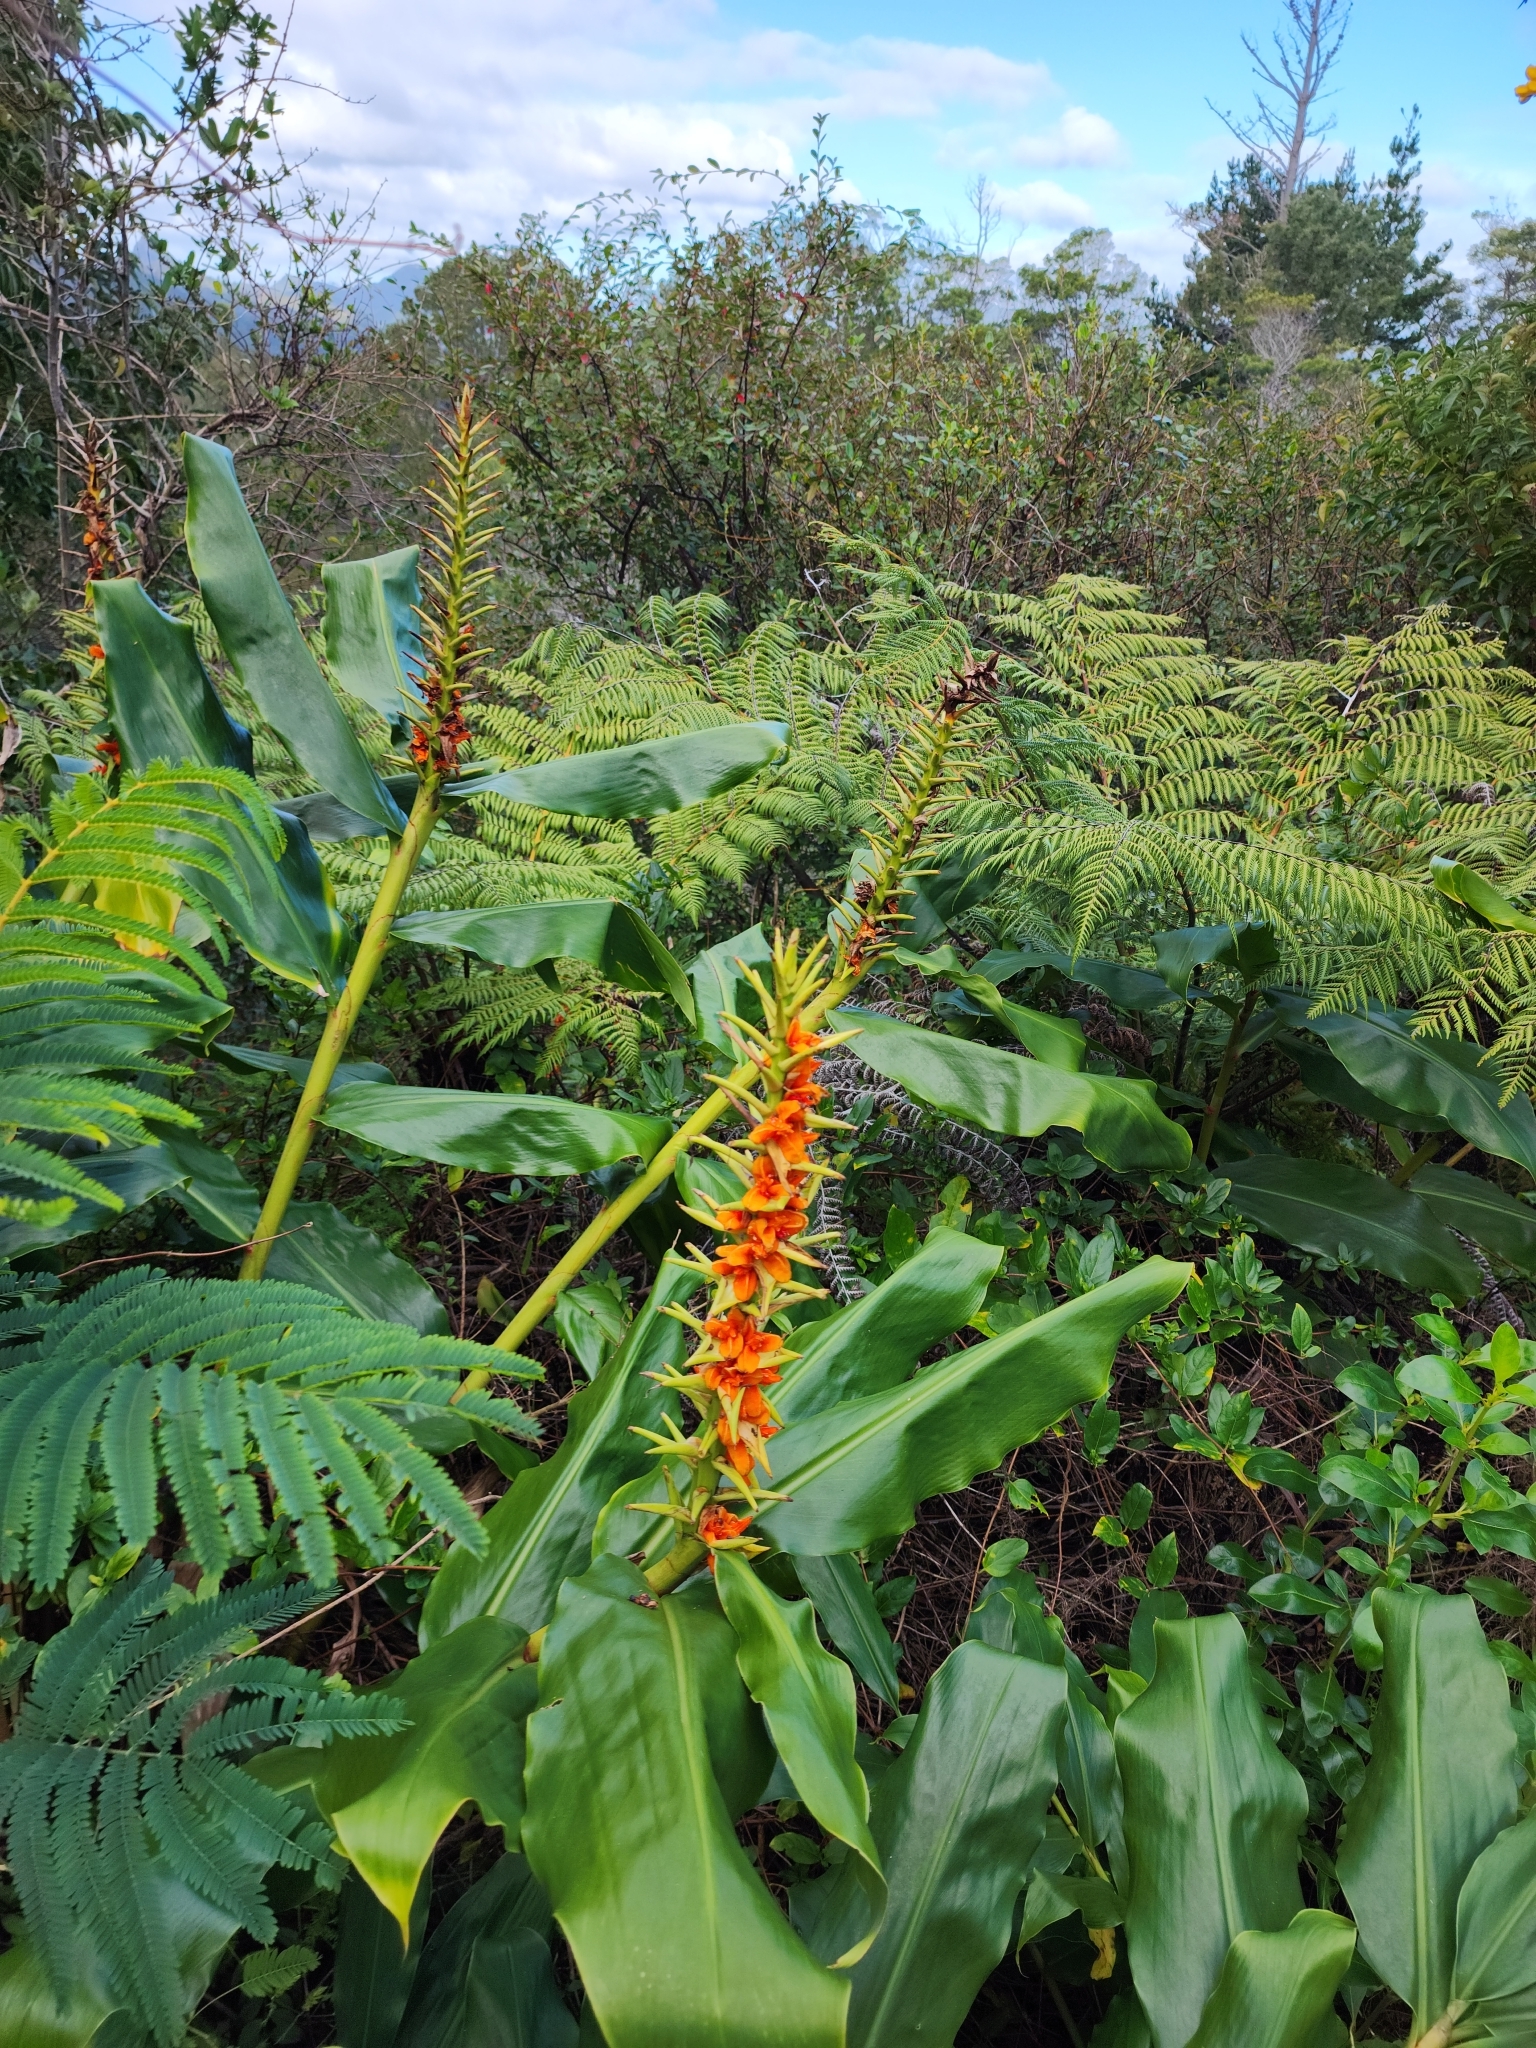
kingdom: Plantae
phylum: Tracheophyta
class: Liliopsida
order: Zingiberales
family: Zingiberaceae
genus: Hedychium
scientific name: Hedychium gardnerianum
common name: Himalayan ginger
